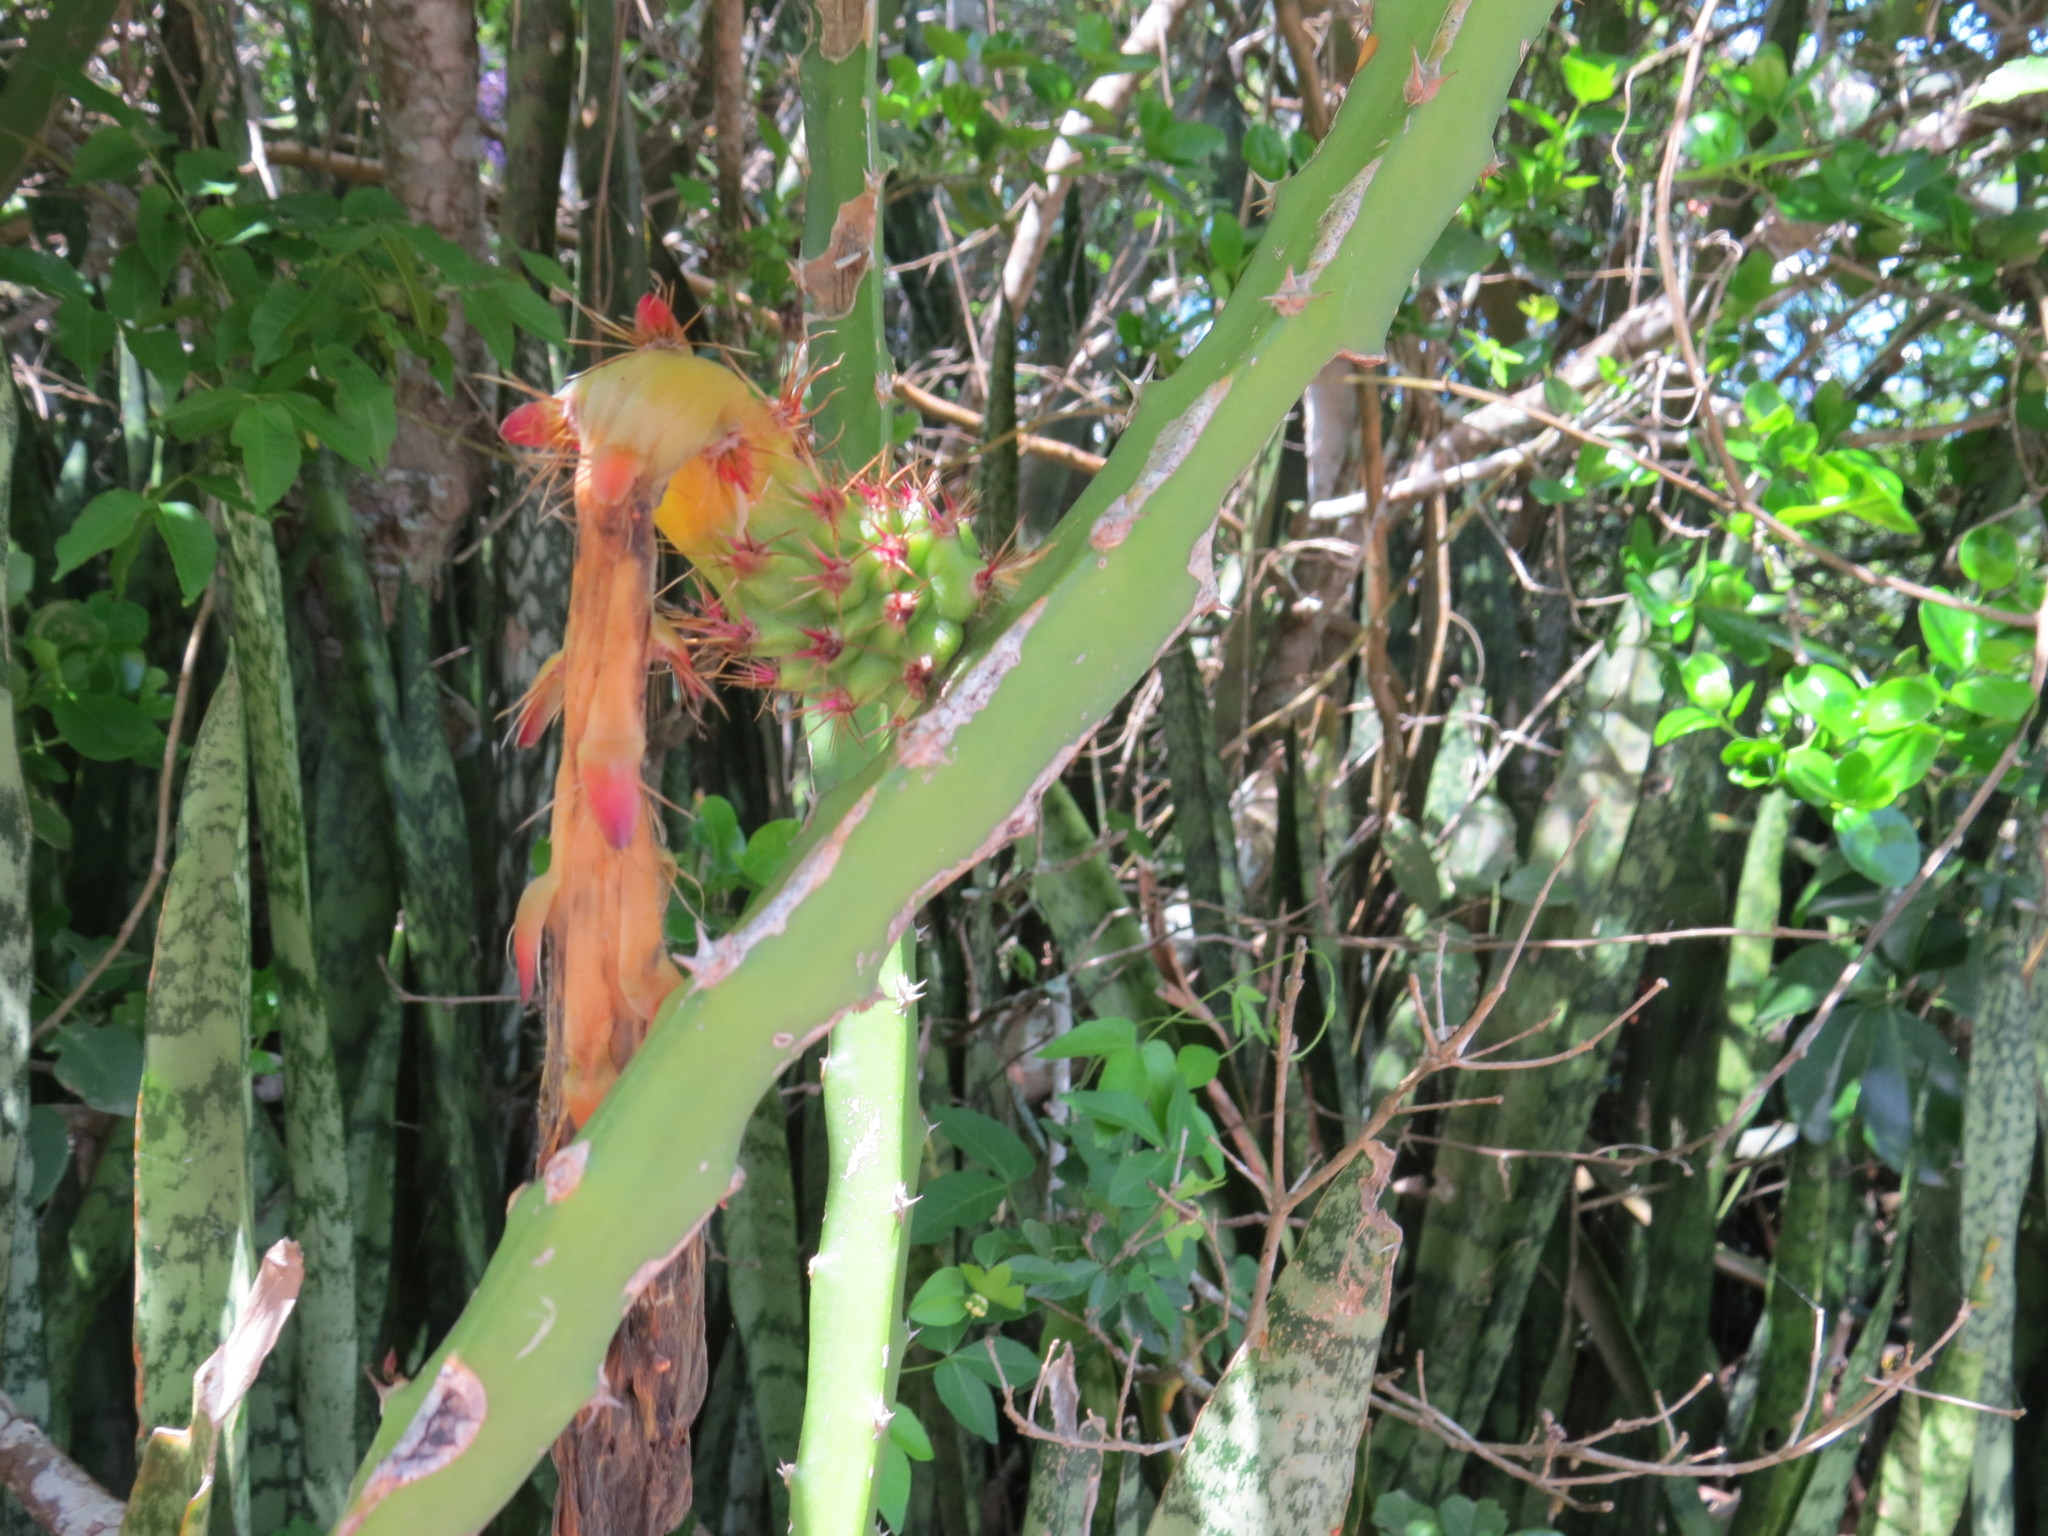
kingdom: Plantae
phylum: Tracheophyta
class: Magnoliopsida
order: Caryophyllales
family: Cactaceae
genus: Selenicereus
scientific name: Selenicereus setaceus
